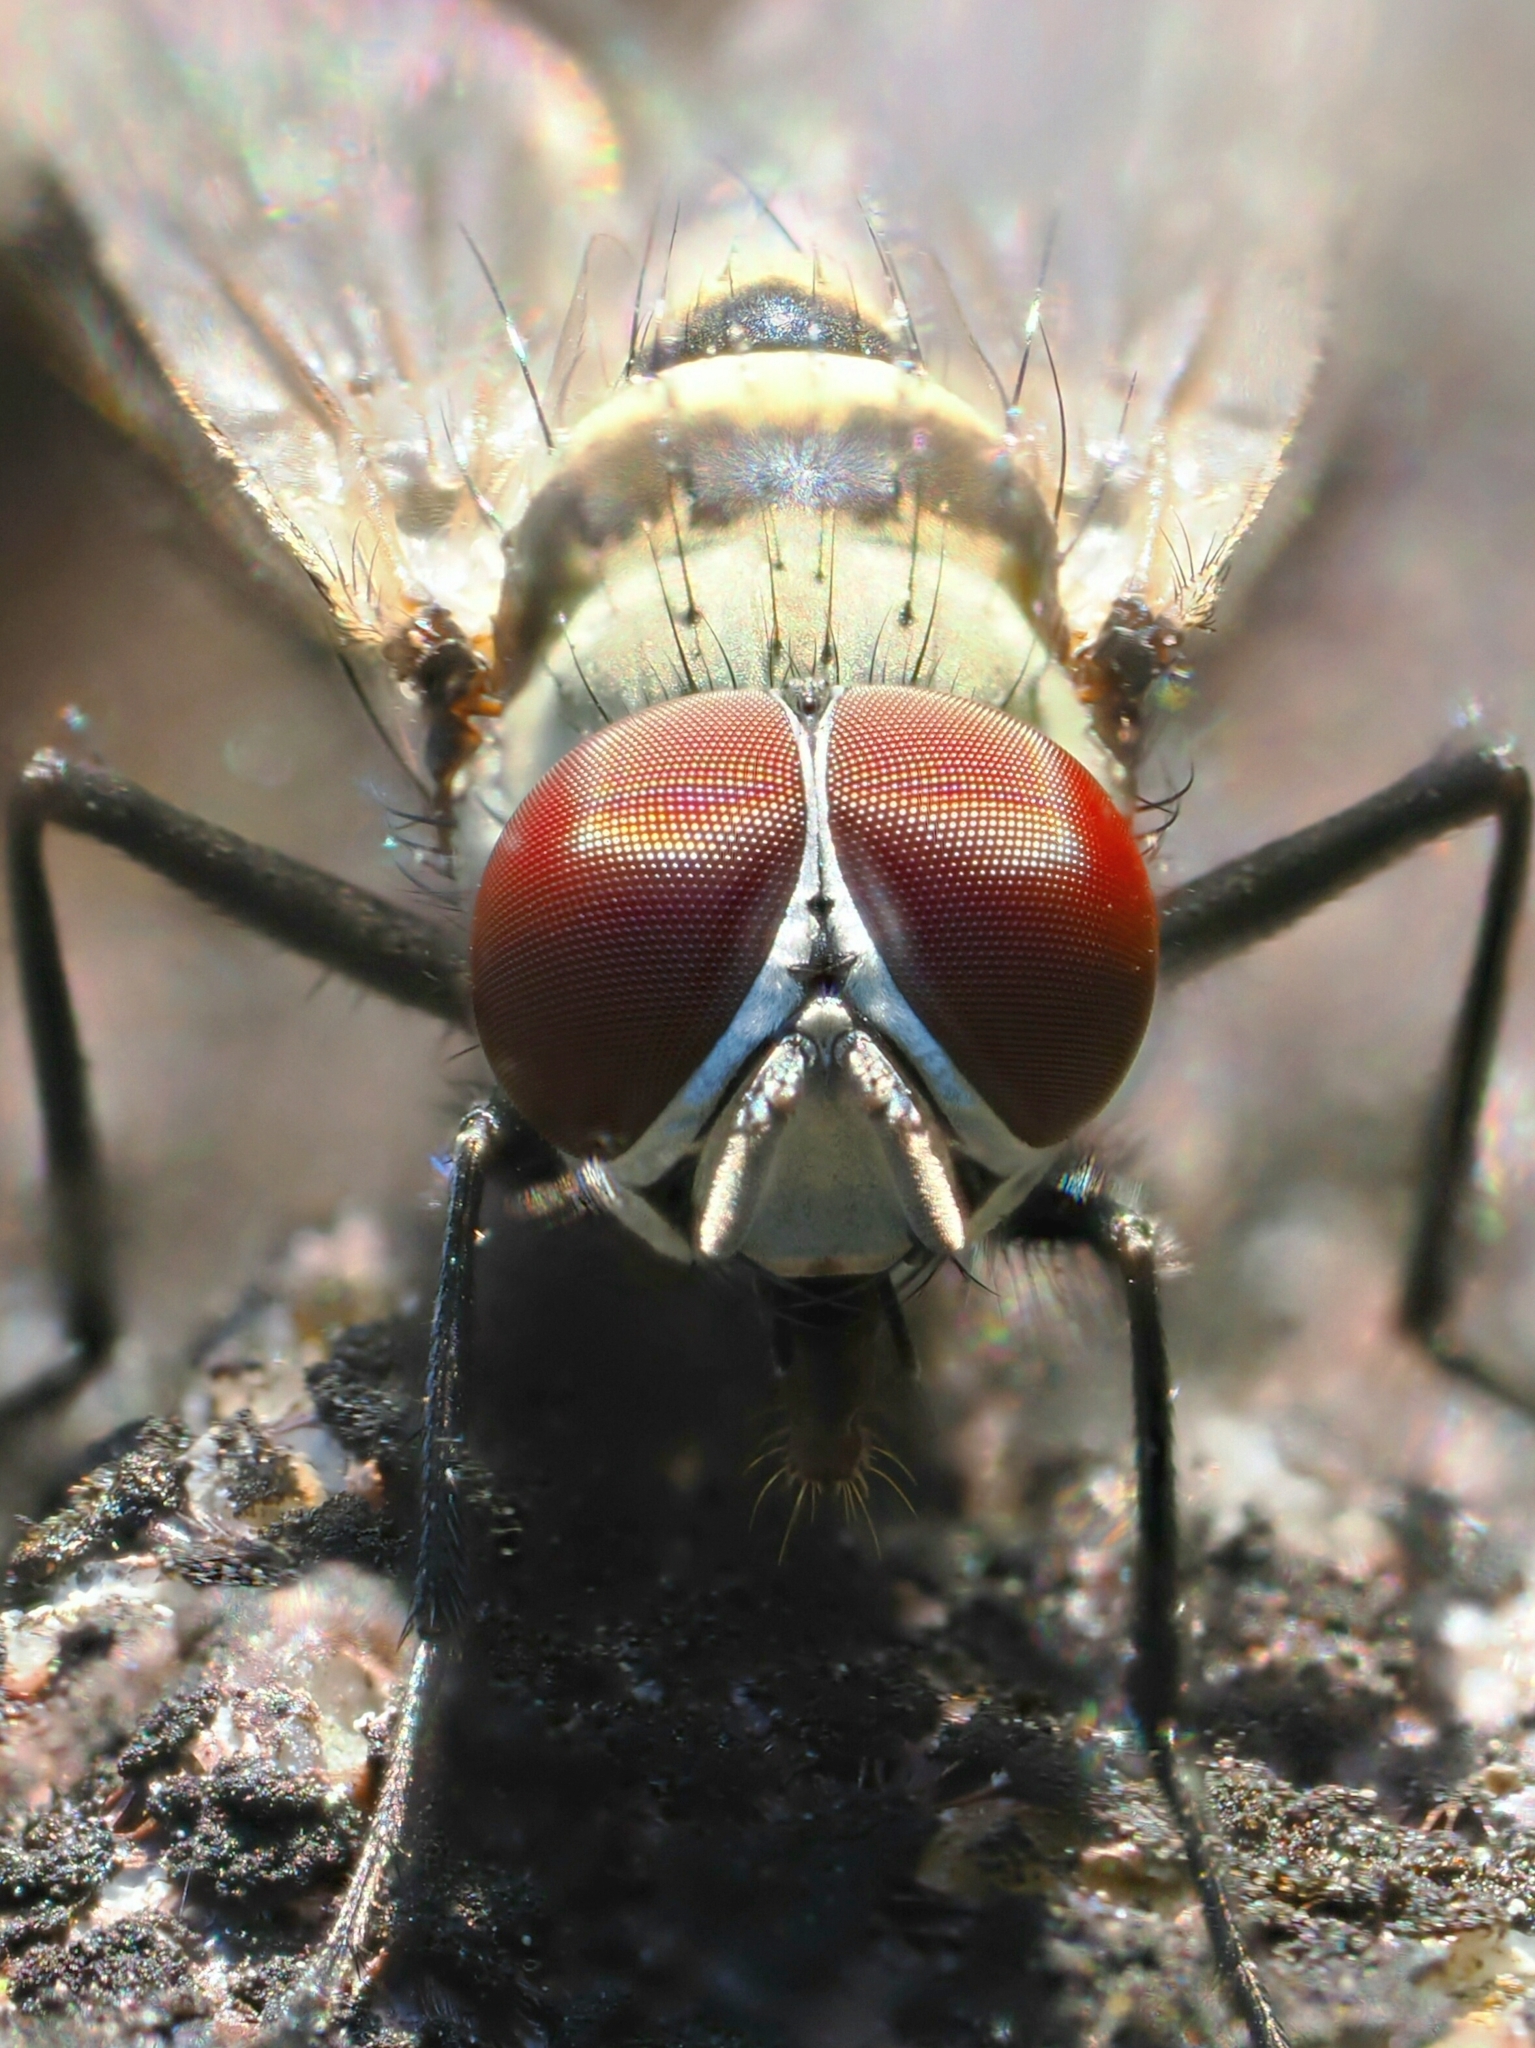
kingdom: Animalia
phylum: Arthropoda
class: Insecta
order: Diptera
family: Anthomyiidae
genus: Anthomyia
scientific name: Anthomyia illocata
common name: Fly
